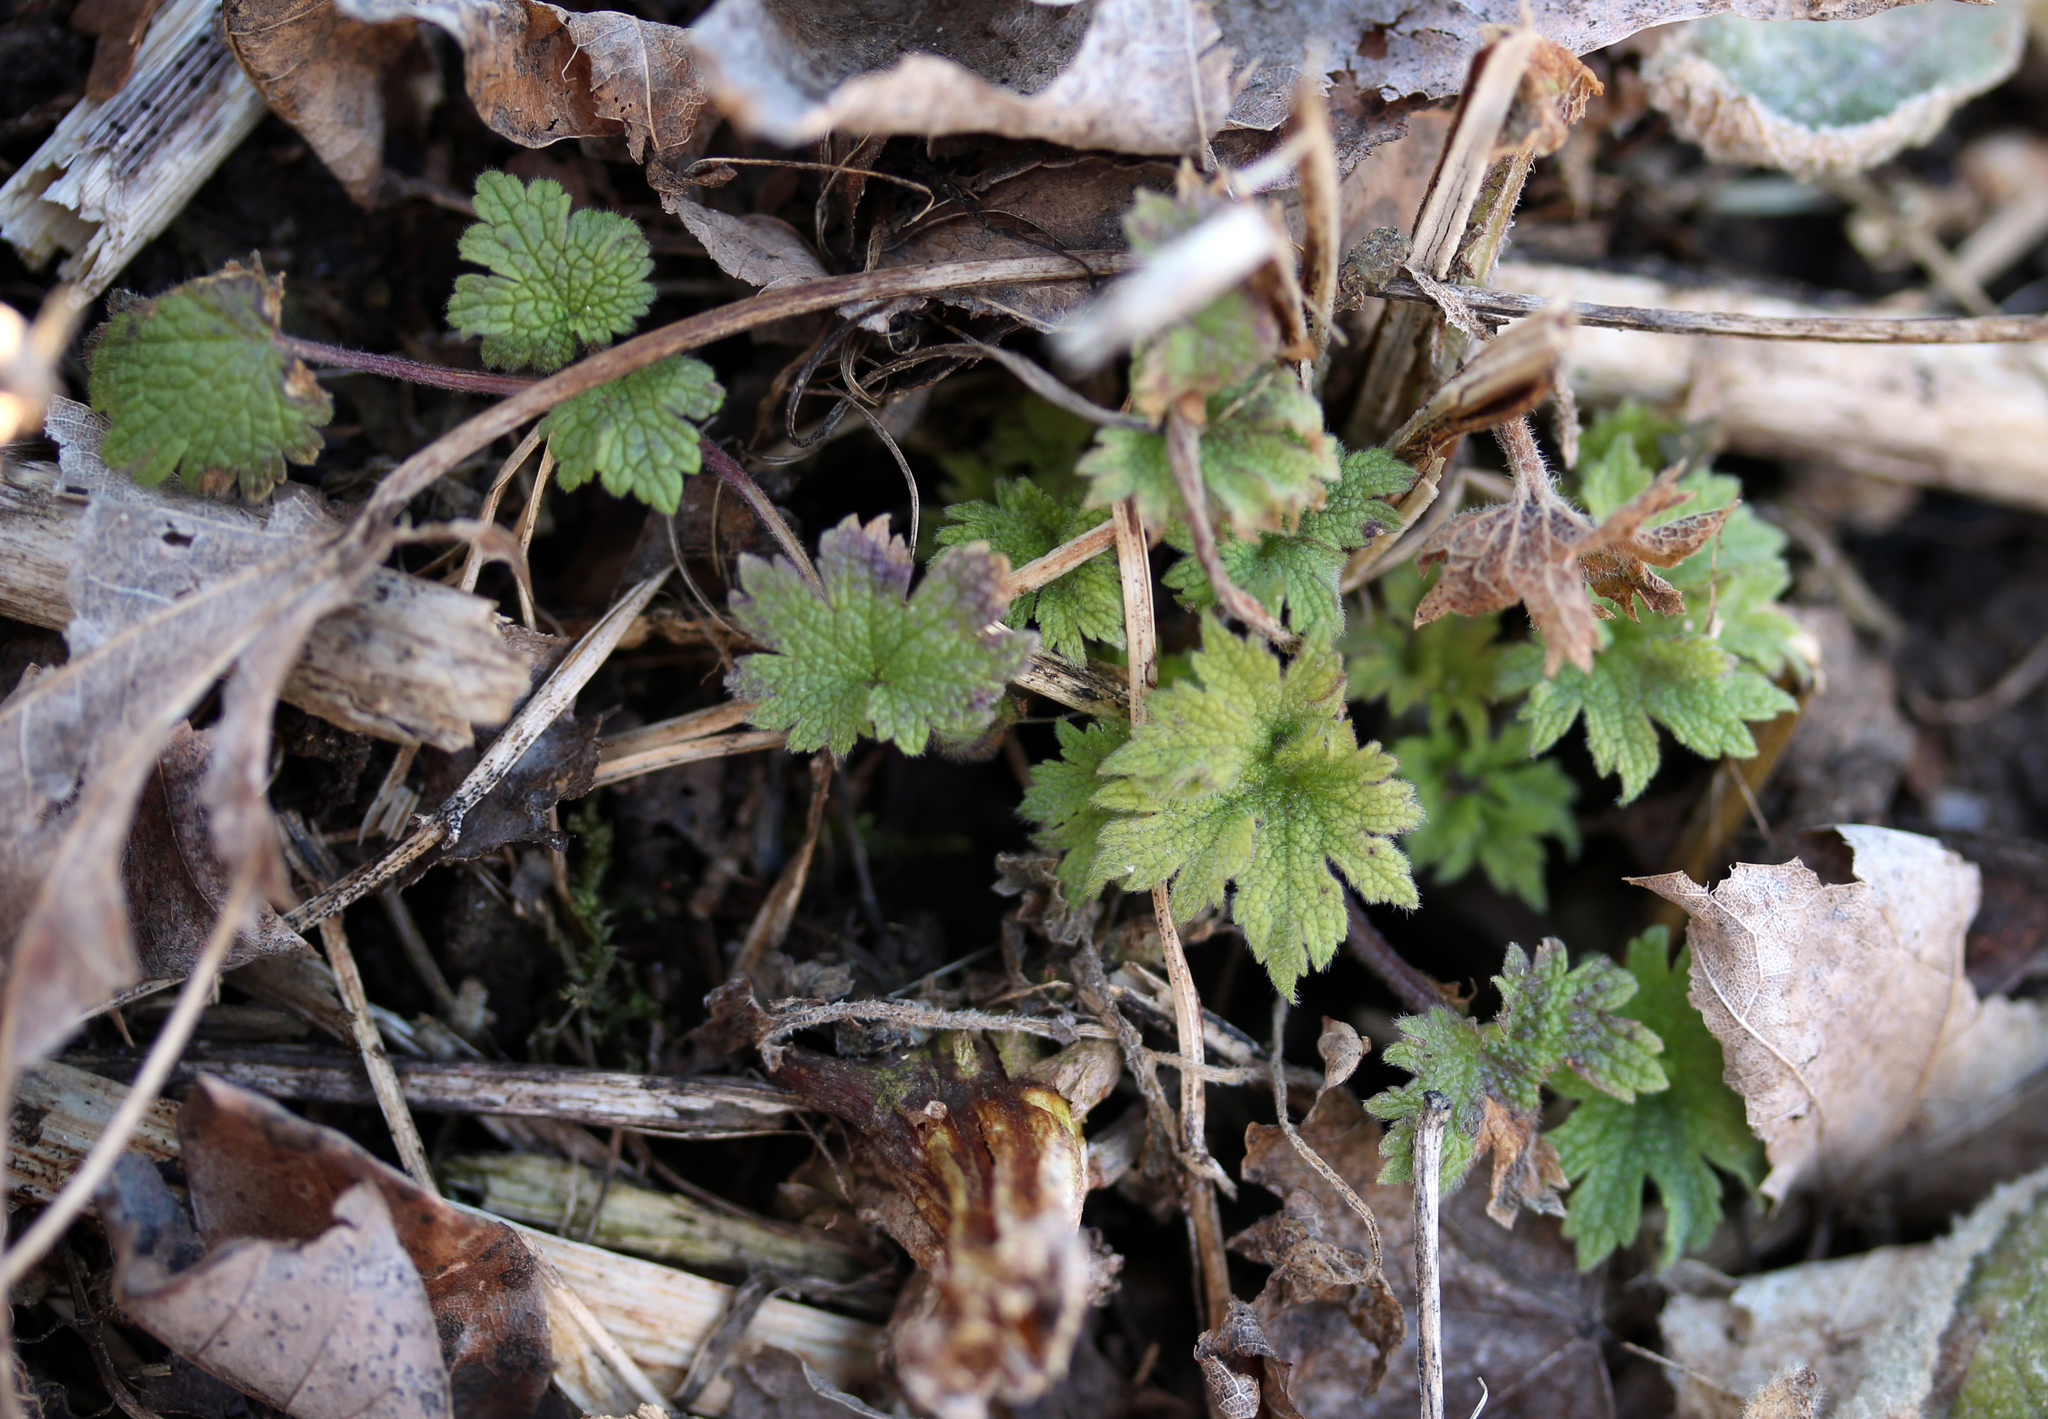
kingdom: Plantae
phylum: Tracheophyta
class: Magnoliopsida
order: Lamiales
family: Lamiaceae
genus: Leonurus
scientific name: Leonurus cardiaca
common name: Motherwort
